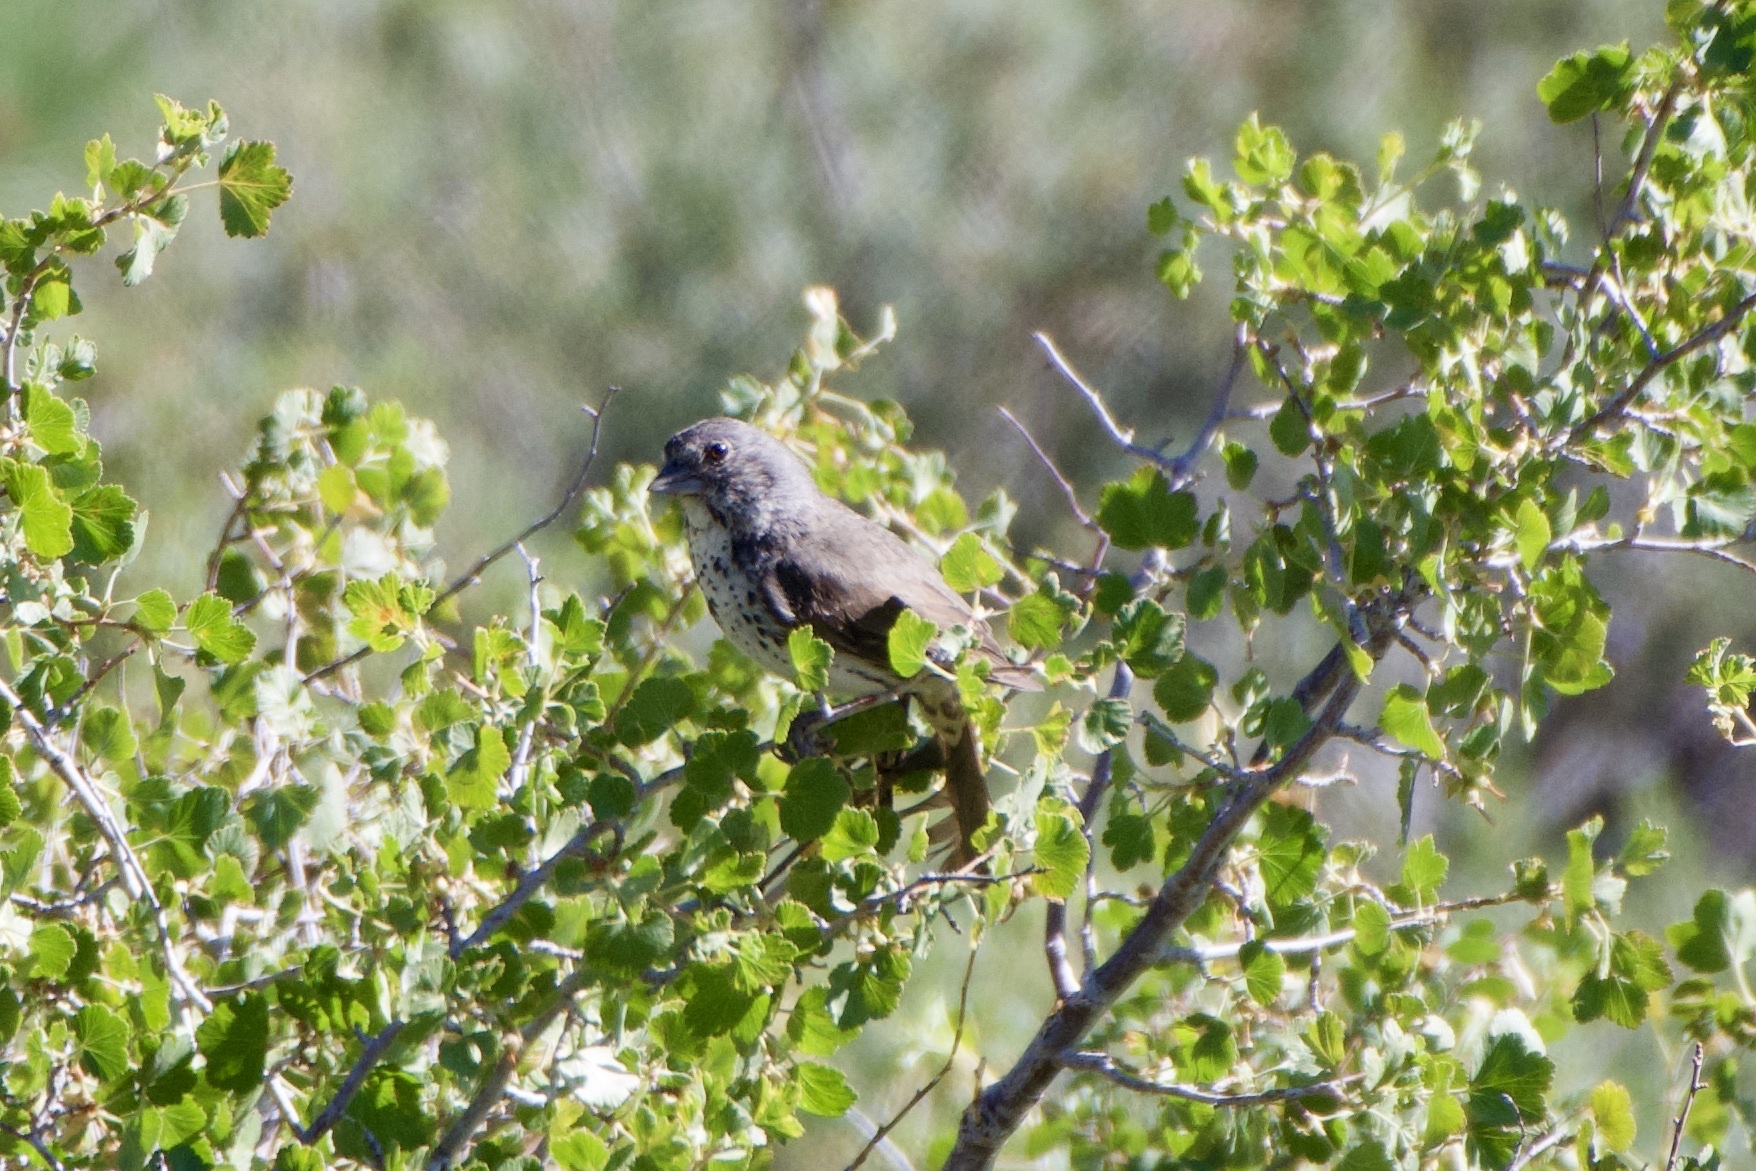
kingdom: Animalia
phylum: Chordata
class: Aves
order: Passeriformes
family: Passerellidae
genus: Passerella
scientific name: Passerella megarhyncha
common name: Thick-billed fox sparrow
